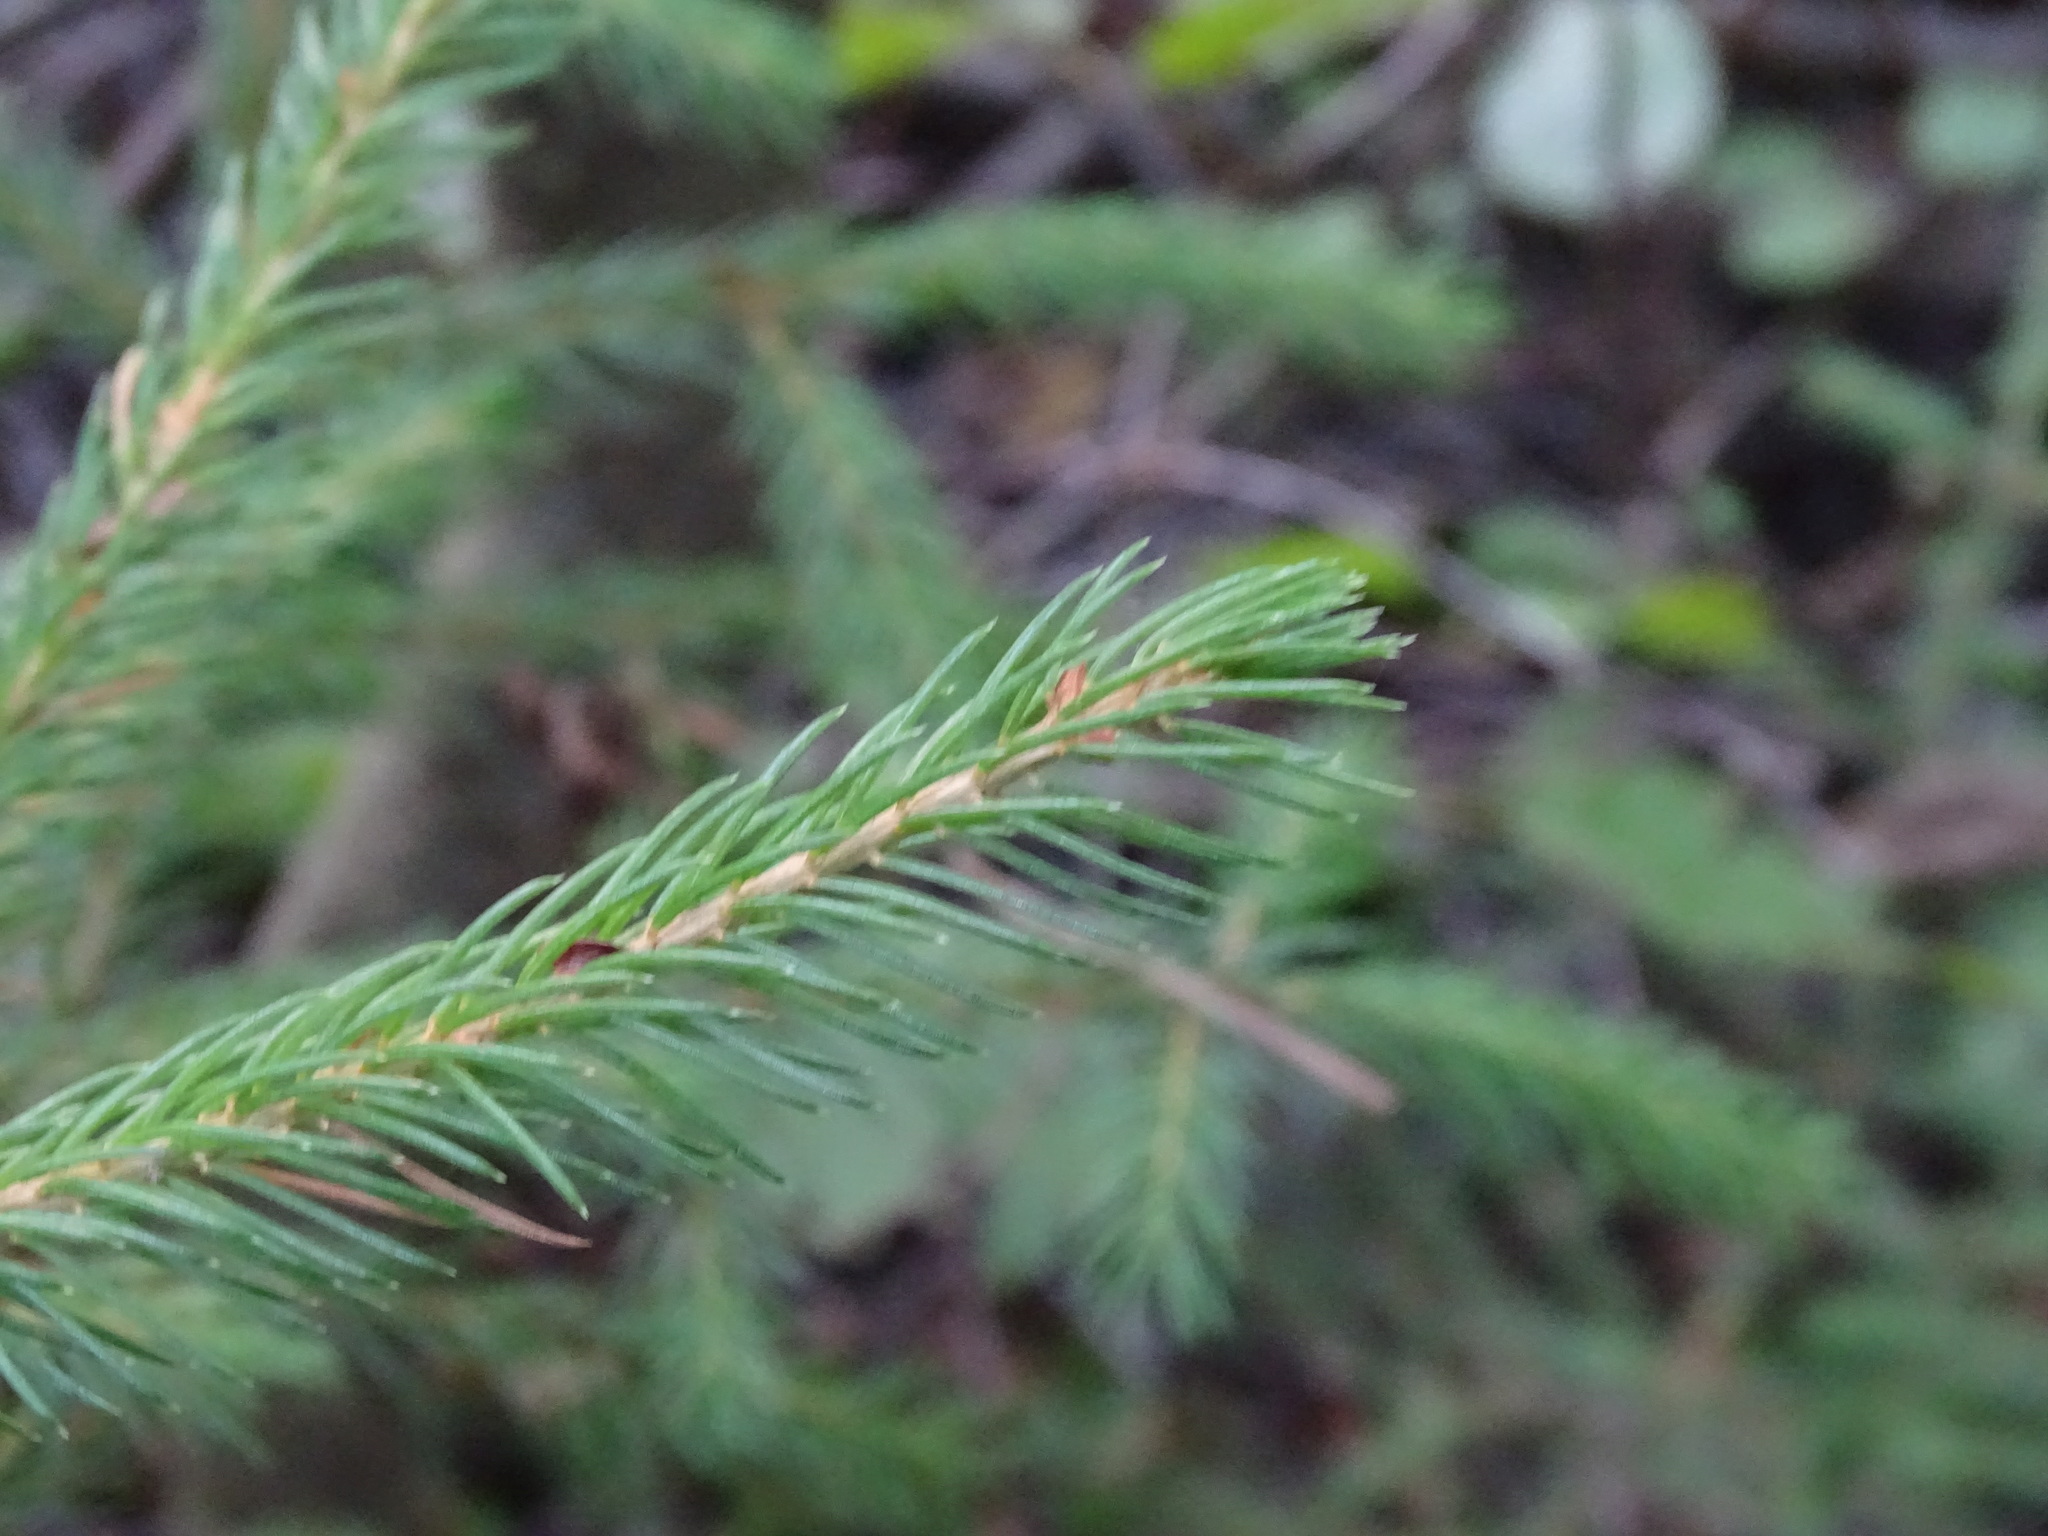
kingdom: Plantae
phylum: Tracheophyta
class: Pinopsida
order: Pinales
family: Pinaceae
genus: Picea
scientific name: Picea glauca
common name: White spruce
